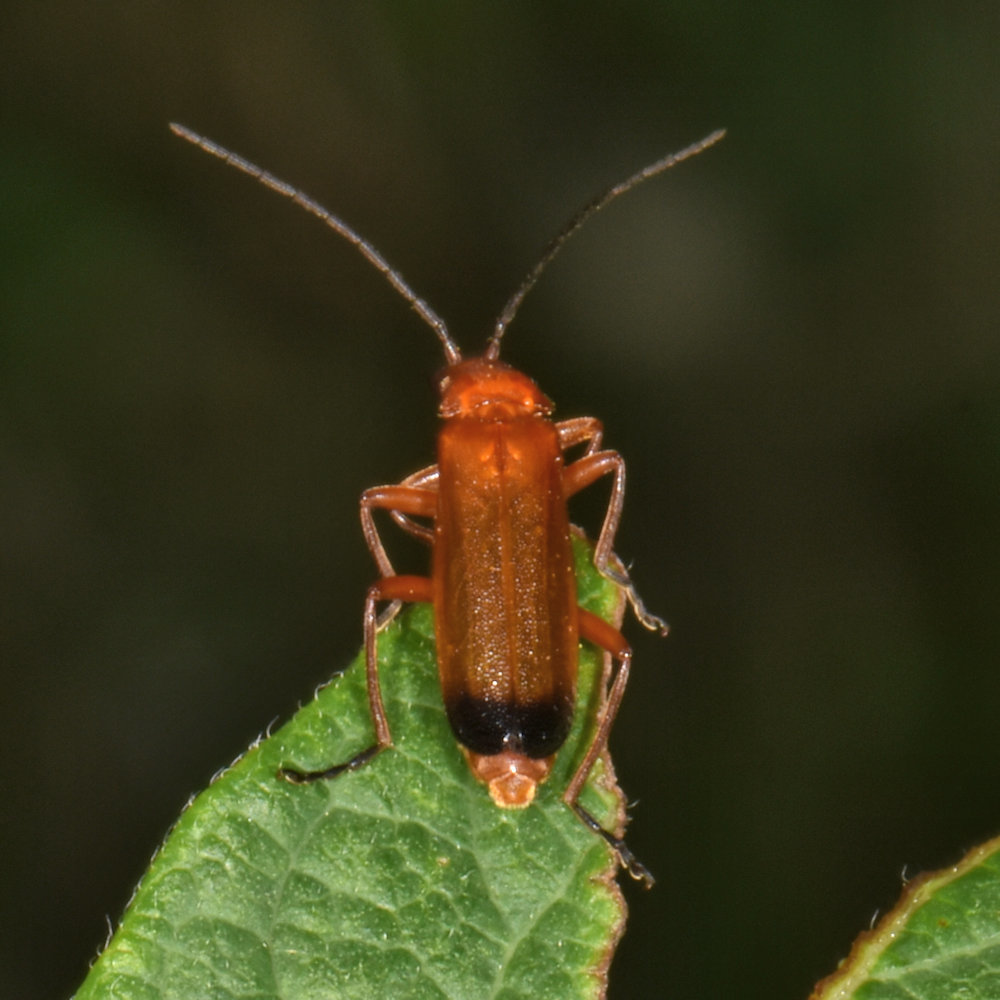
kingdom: Animalia
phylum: Arthropoda
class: Insecta
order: Coleoptera
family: Cantharidae
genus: Rhagonycha
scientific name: Rhagonycha fulva
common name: Common red soldier beetle
